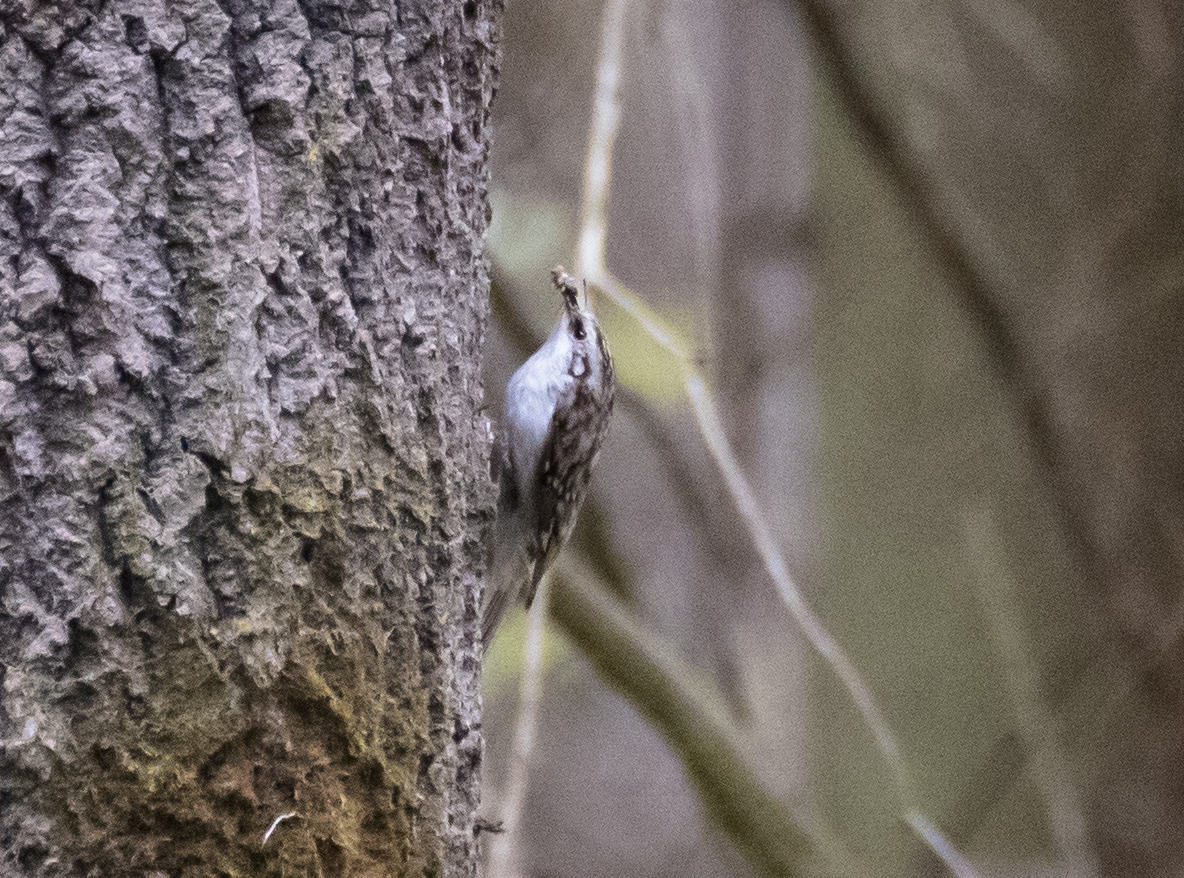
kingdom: Animalia
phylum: Chordata
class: Aves
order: Passeriformes
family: Certhiidae
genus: Certhia
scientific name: Certhia familiaris
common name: Eurasian treecreeper
